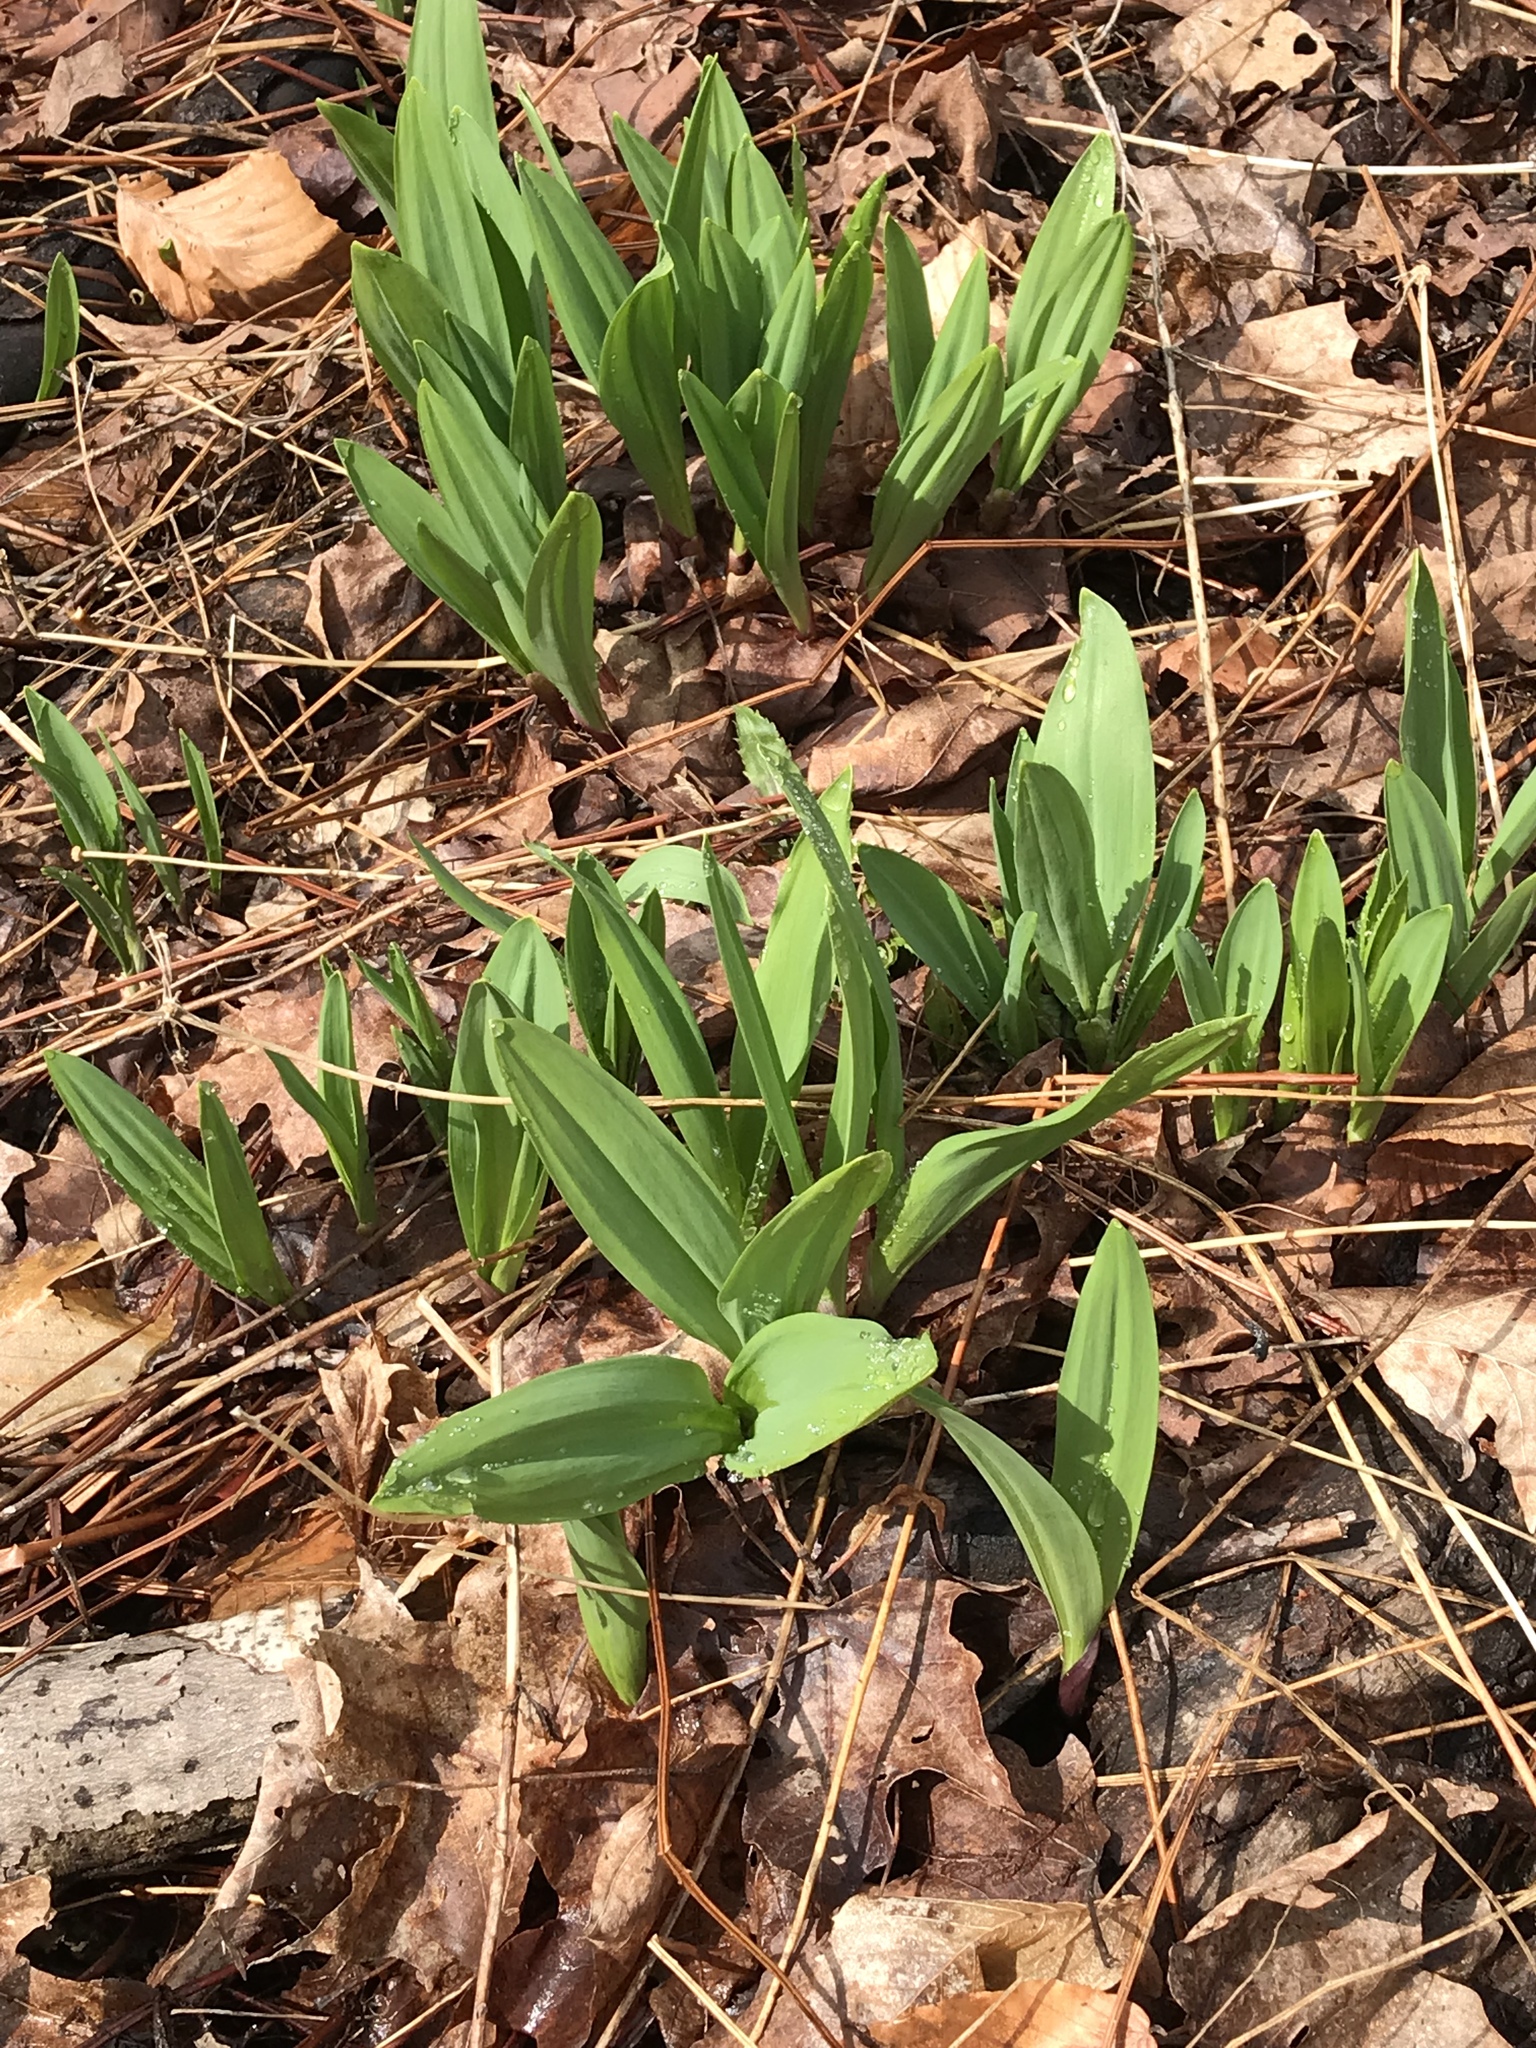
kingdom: Plantae
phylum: Tracheophyta
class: Liliopsida
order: Asparagales
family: Amaryllidaceae
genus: Allium
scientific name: Allium tricoccum
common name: Ramp
